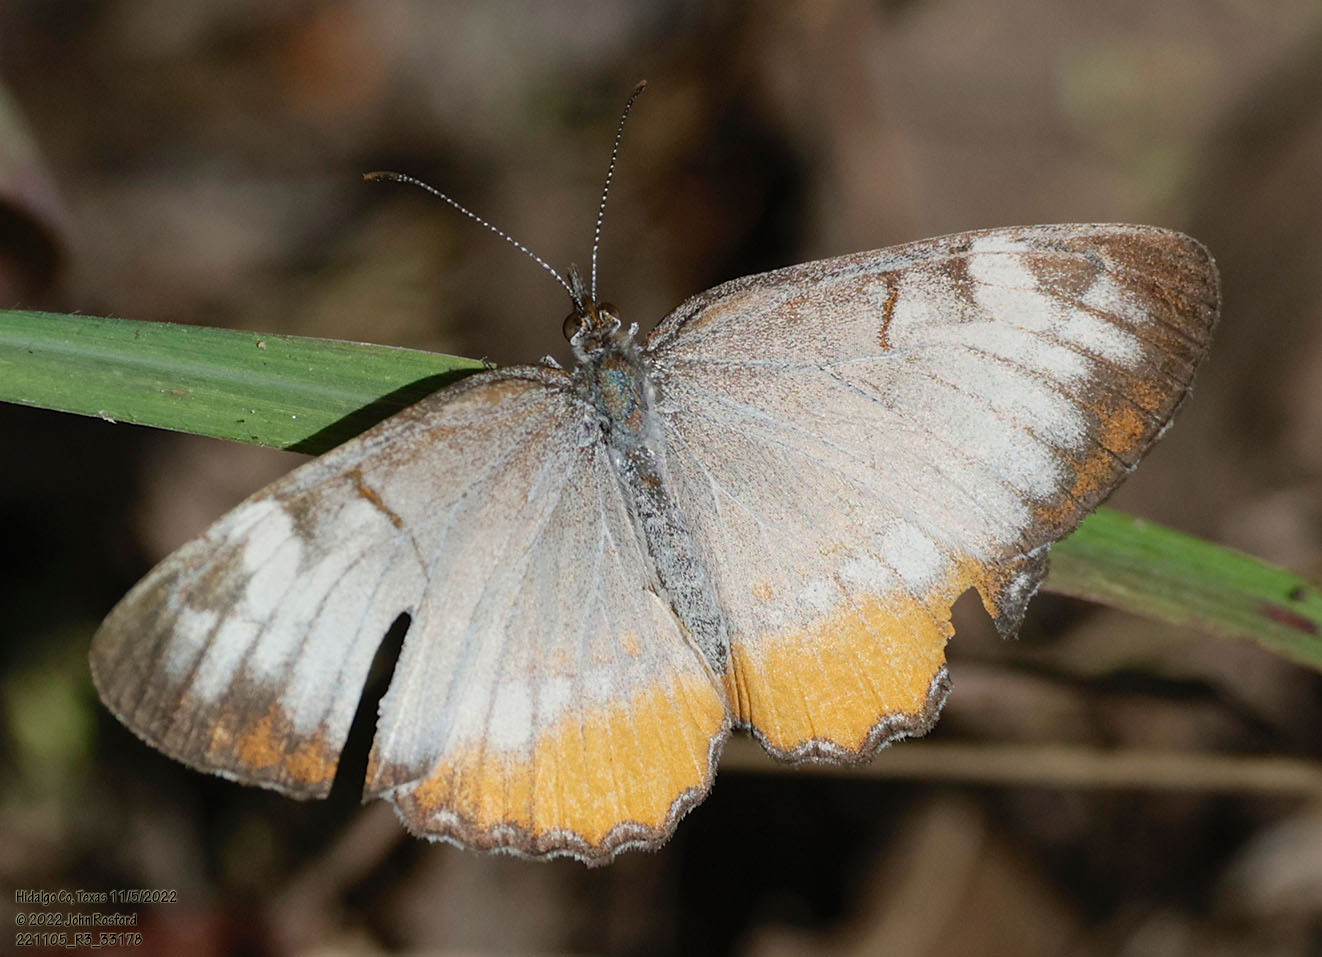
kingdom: Animalia
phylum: Arthropoda
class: Insecta
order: Lepidoptera
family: Nymphalidae
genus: Mestra
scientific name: Mestra amymone
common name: Common mestra
